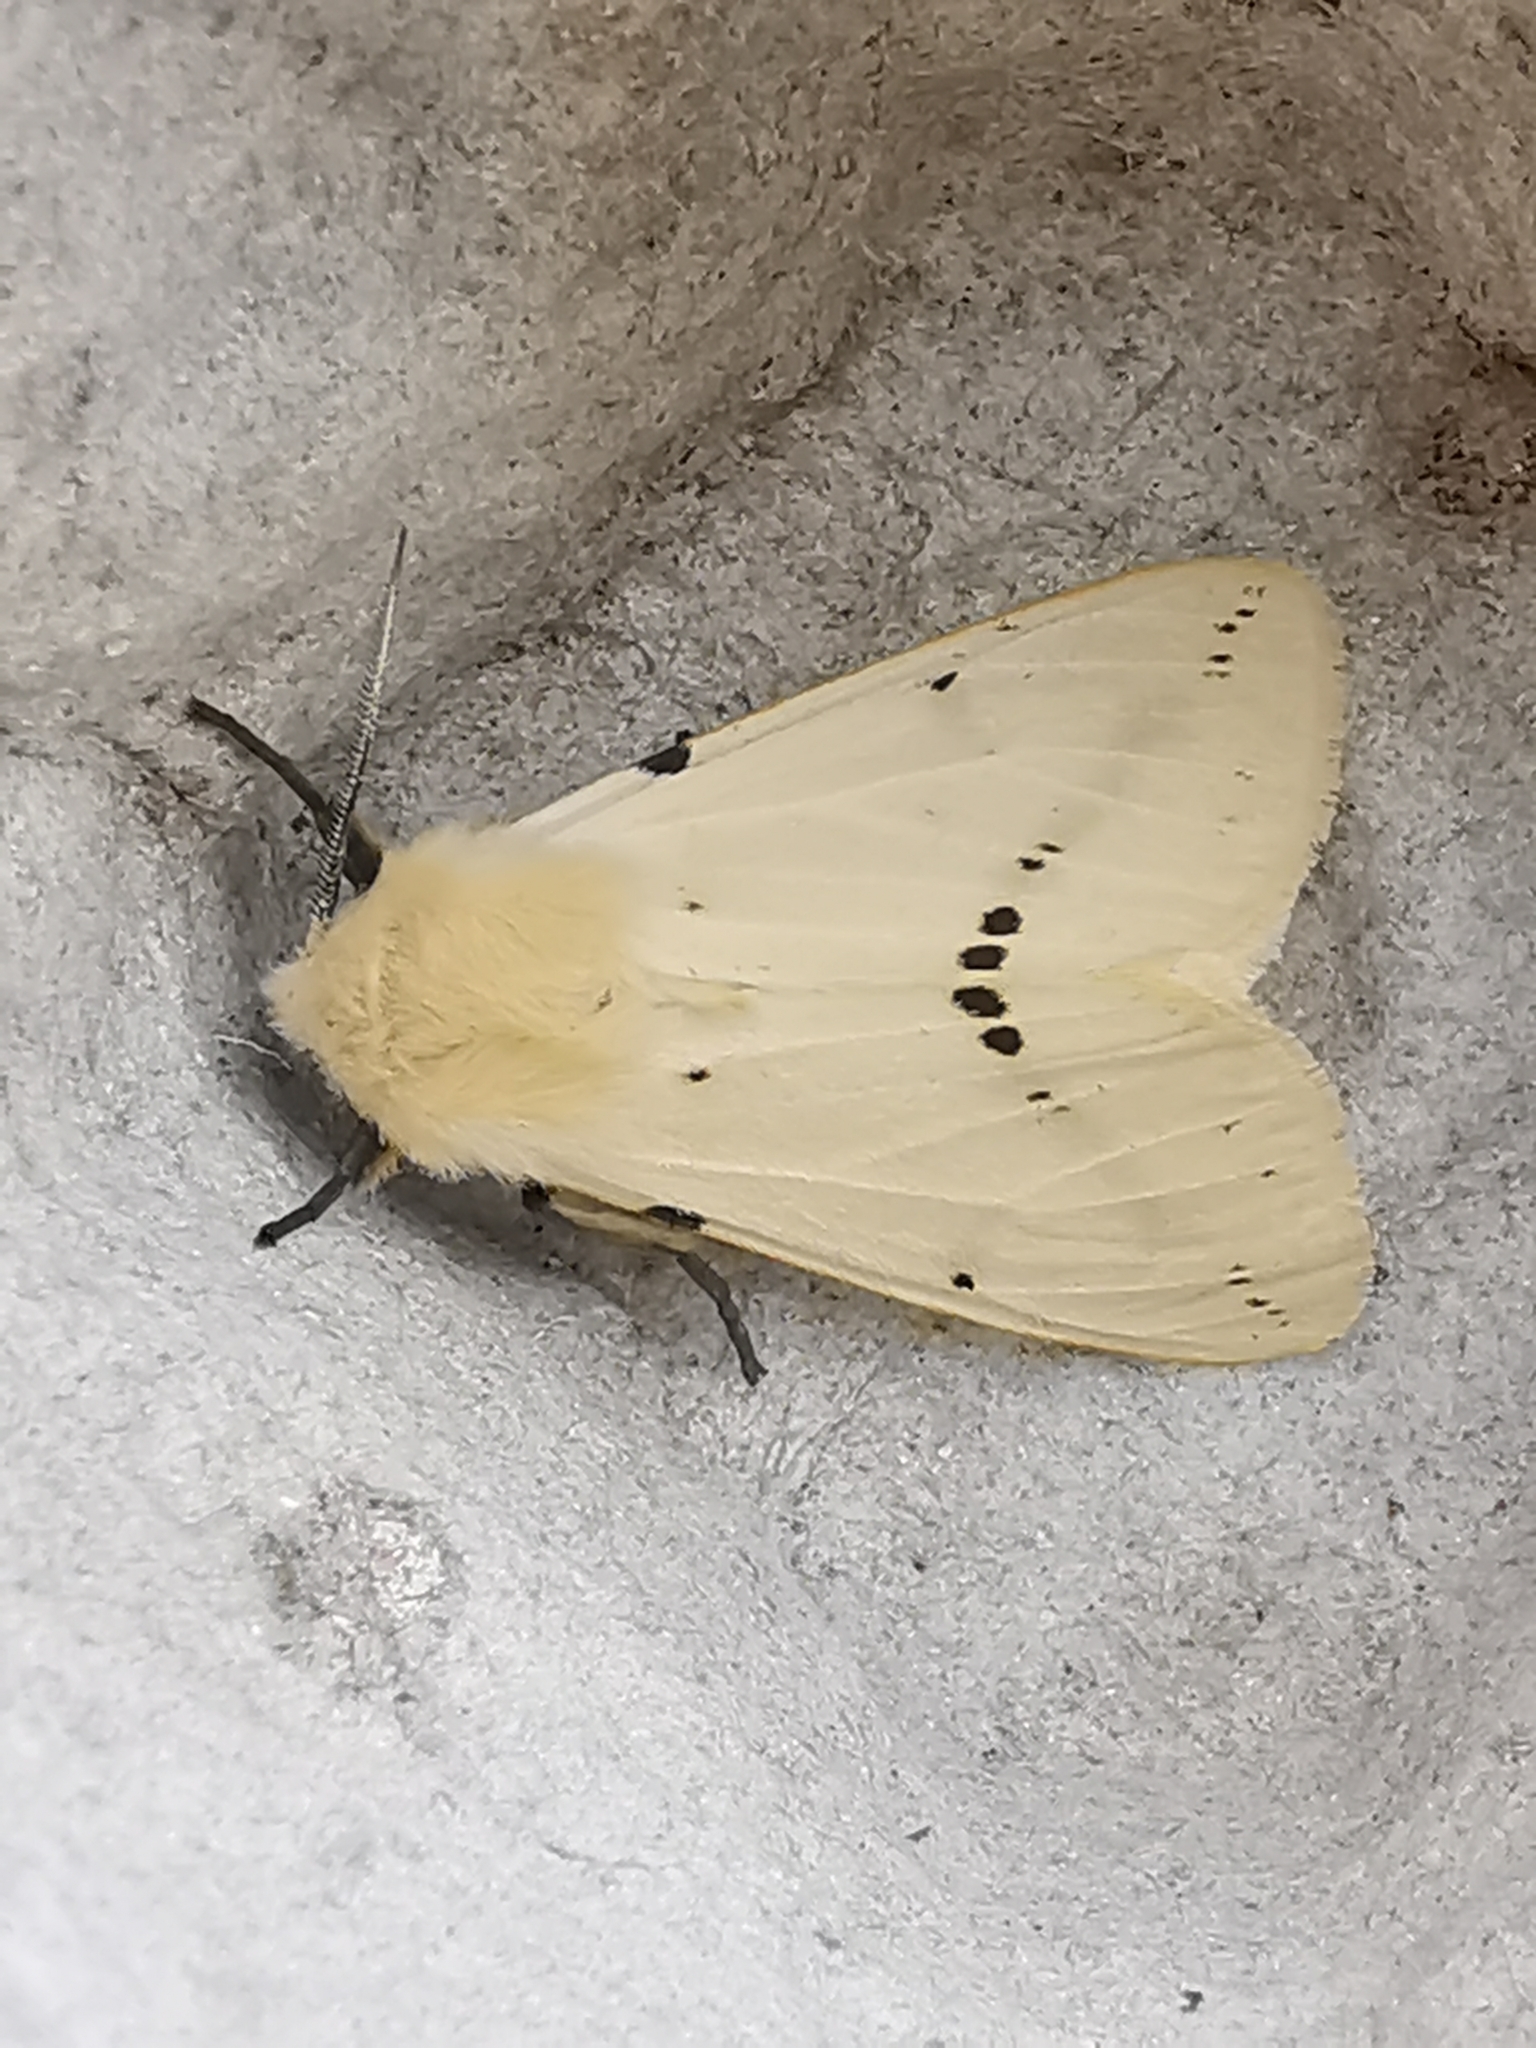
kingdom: Animalia
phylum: Arthropoda
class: Insecta
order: Lepidoptera
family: Erebidae
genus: Spilarctia
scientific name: Spilarctia lutea
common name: Buff ermine
